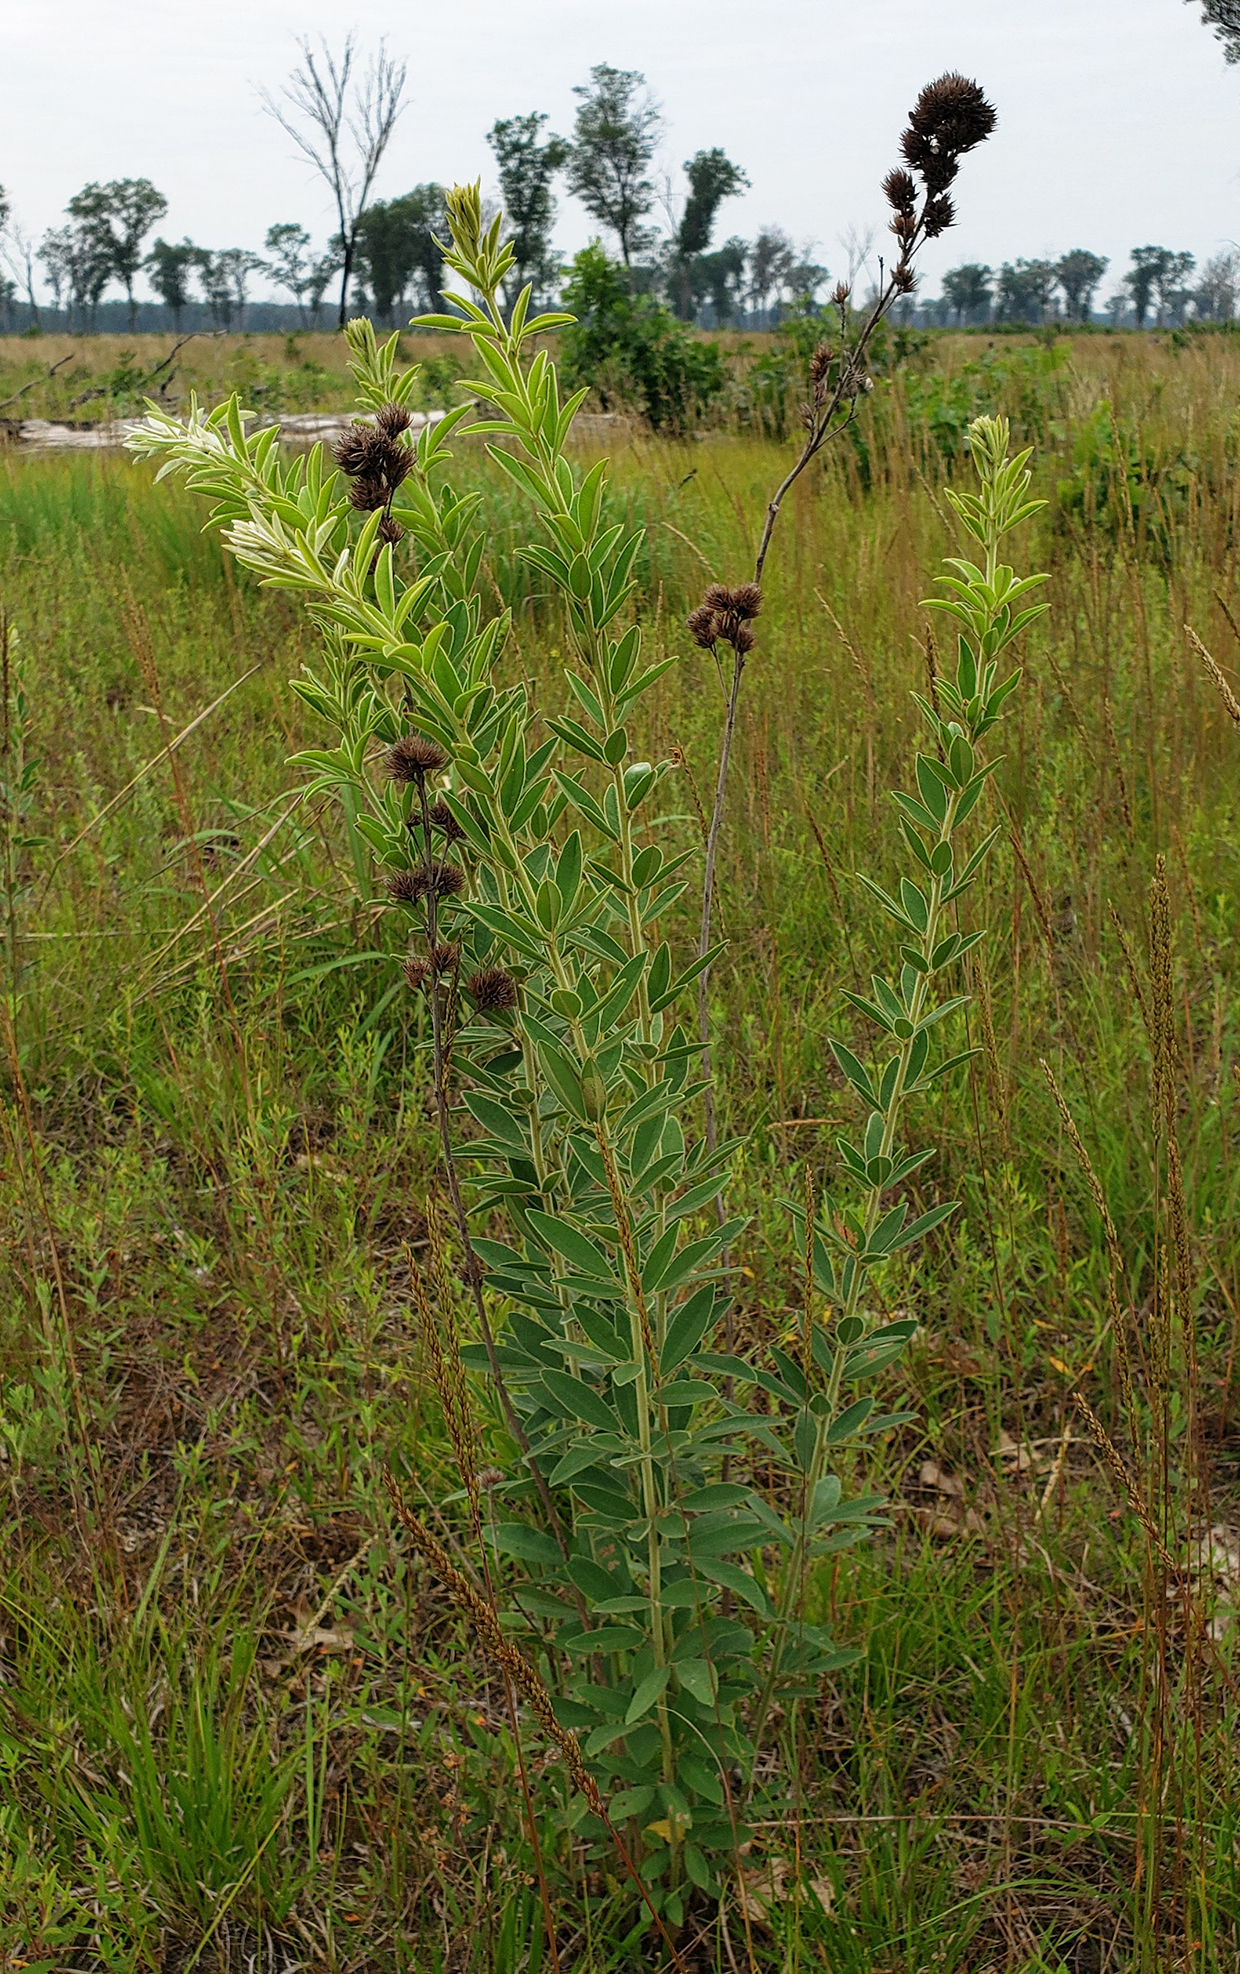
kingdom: Plantae
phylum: Tracheophyta
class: Magnoliopsida
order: Fabales
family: Fabaceae
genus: Lespedeza
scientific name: Lespedeza capitata
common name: Dusty clover
